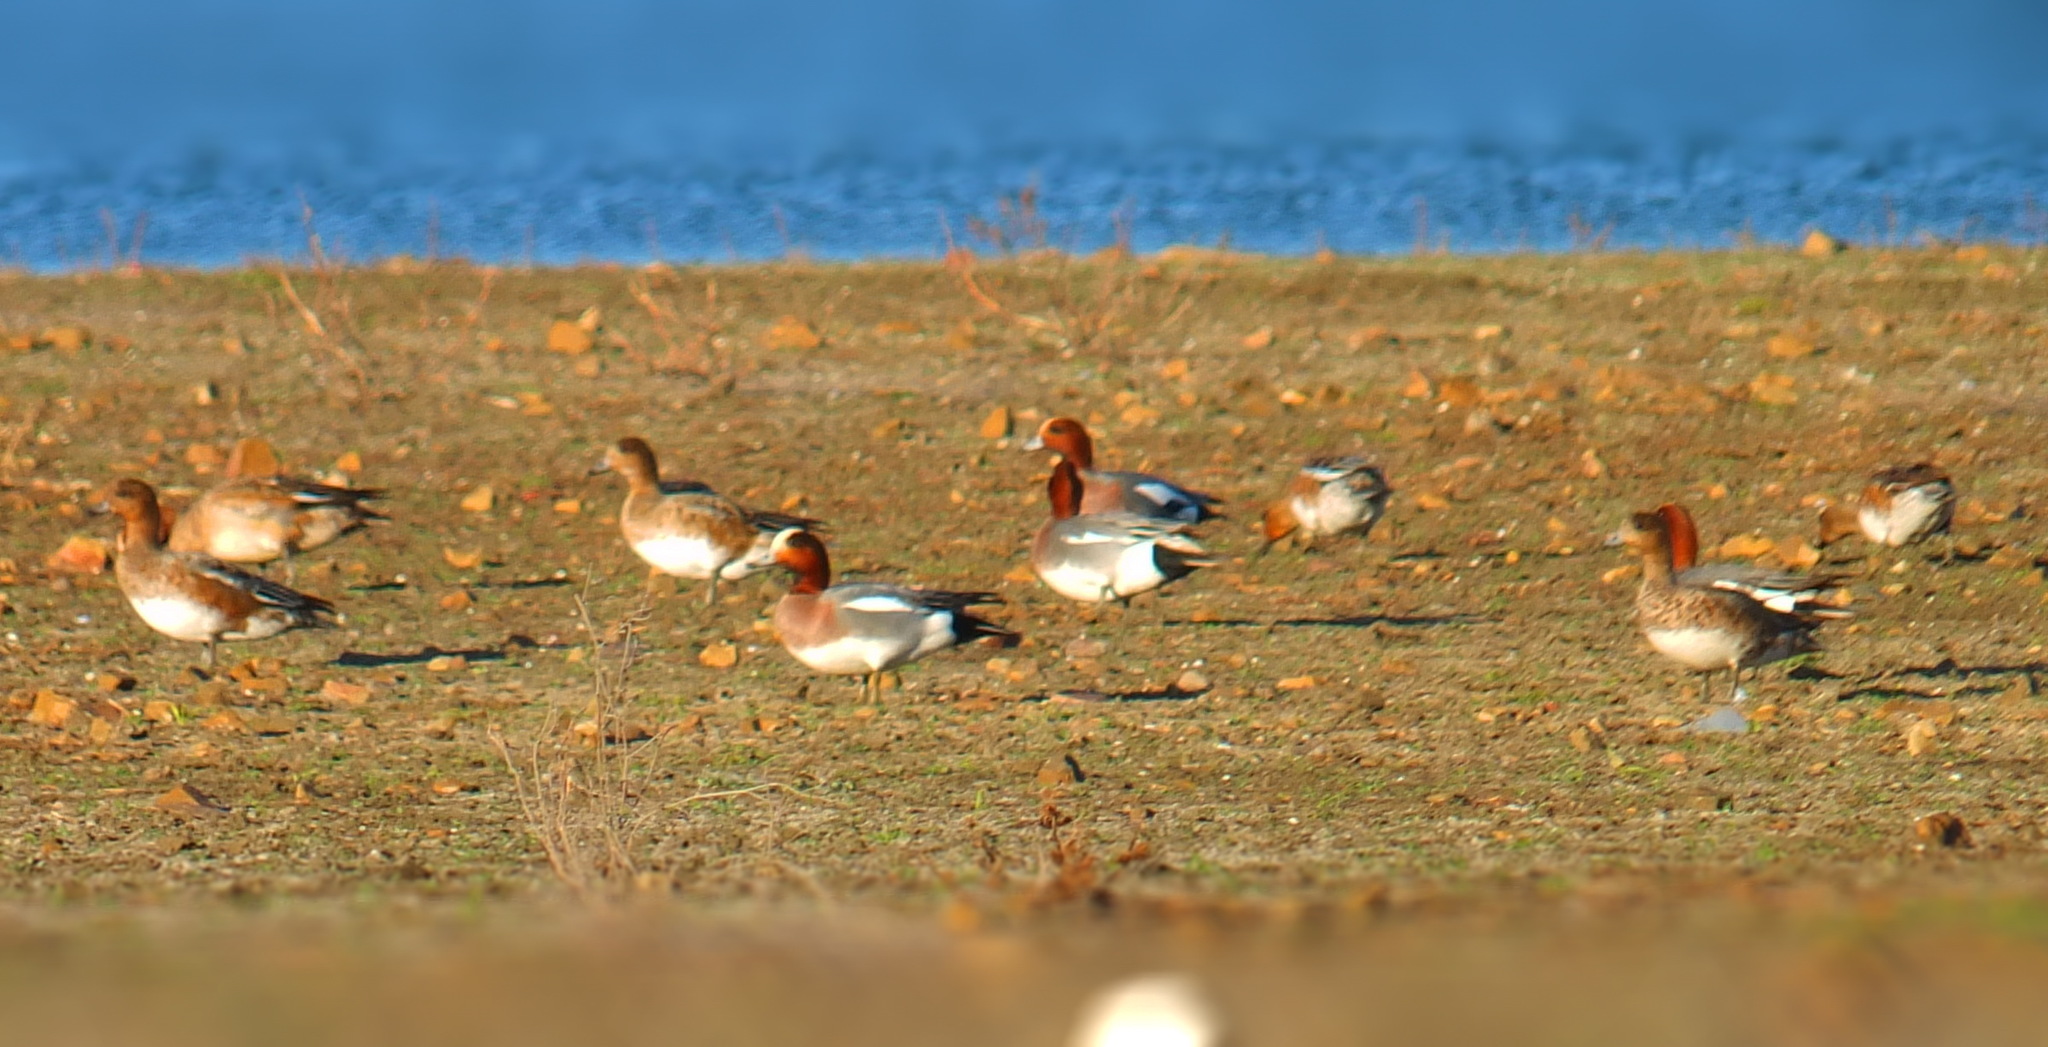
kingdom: Animalia
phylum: Chordata
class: Aves
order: Anseriformes
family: Anatidae
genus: Mareca
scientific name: Mareca penelope
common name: Eurasian wigeon
